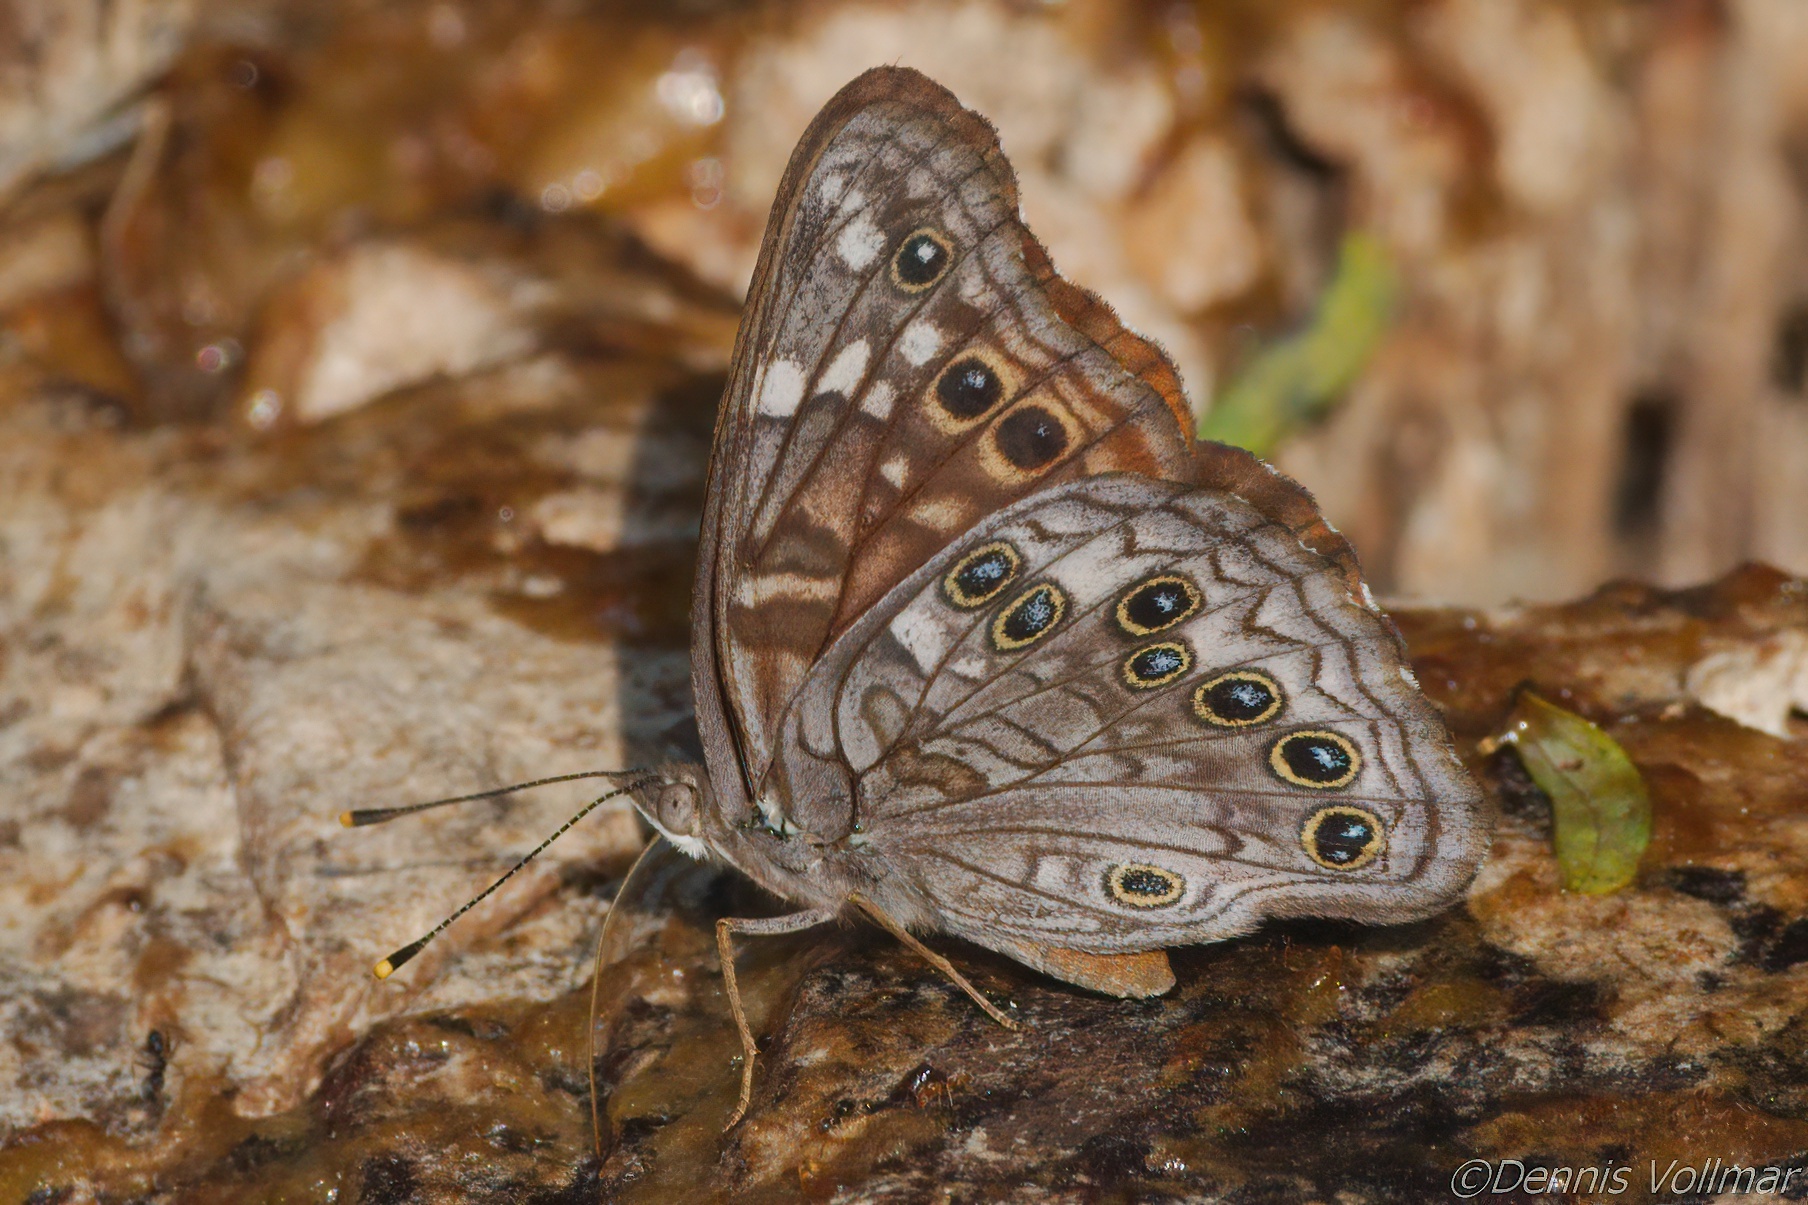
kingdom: Animalia
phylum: Arthropoda
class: Insecta
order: Lepidoptera
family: Nymphalidae
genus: Asterocampa
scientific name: Asterocampa leilia
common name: Empress leilia
